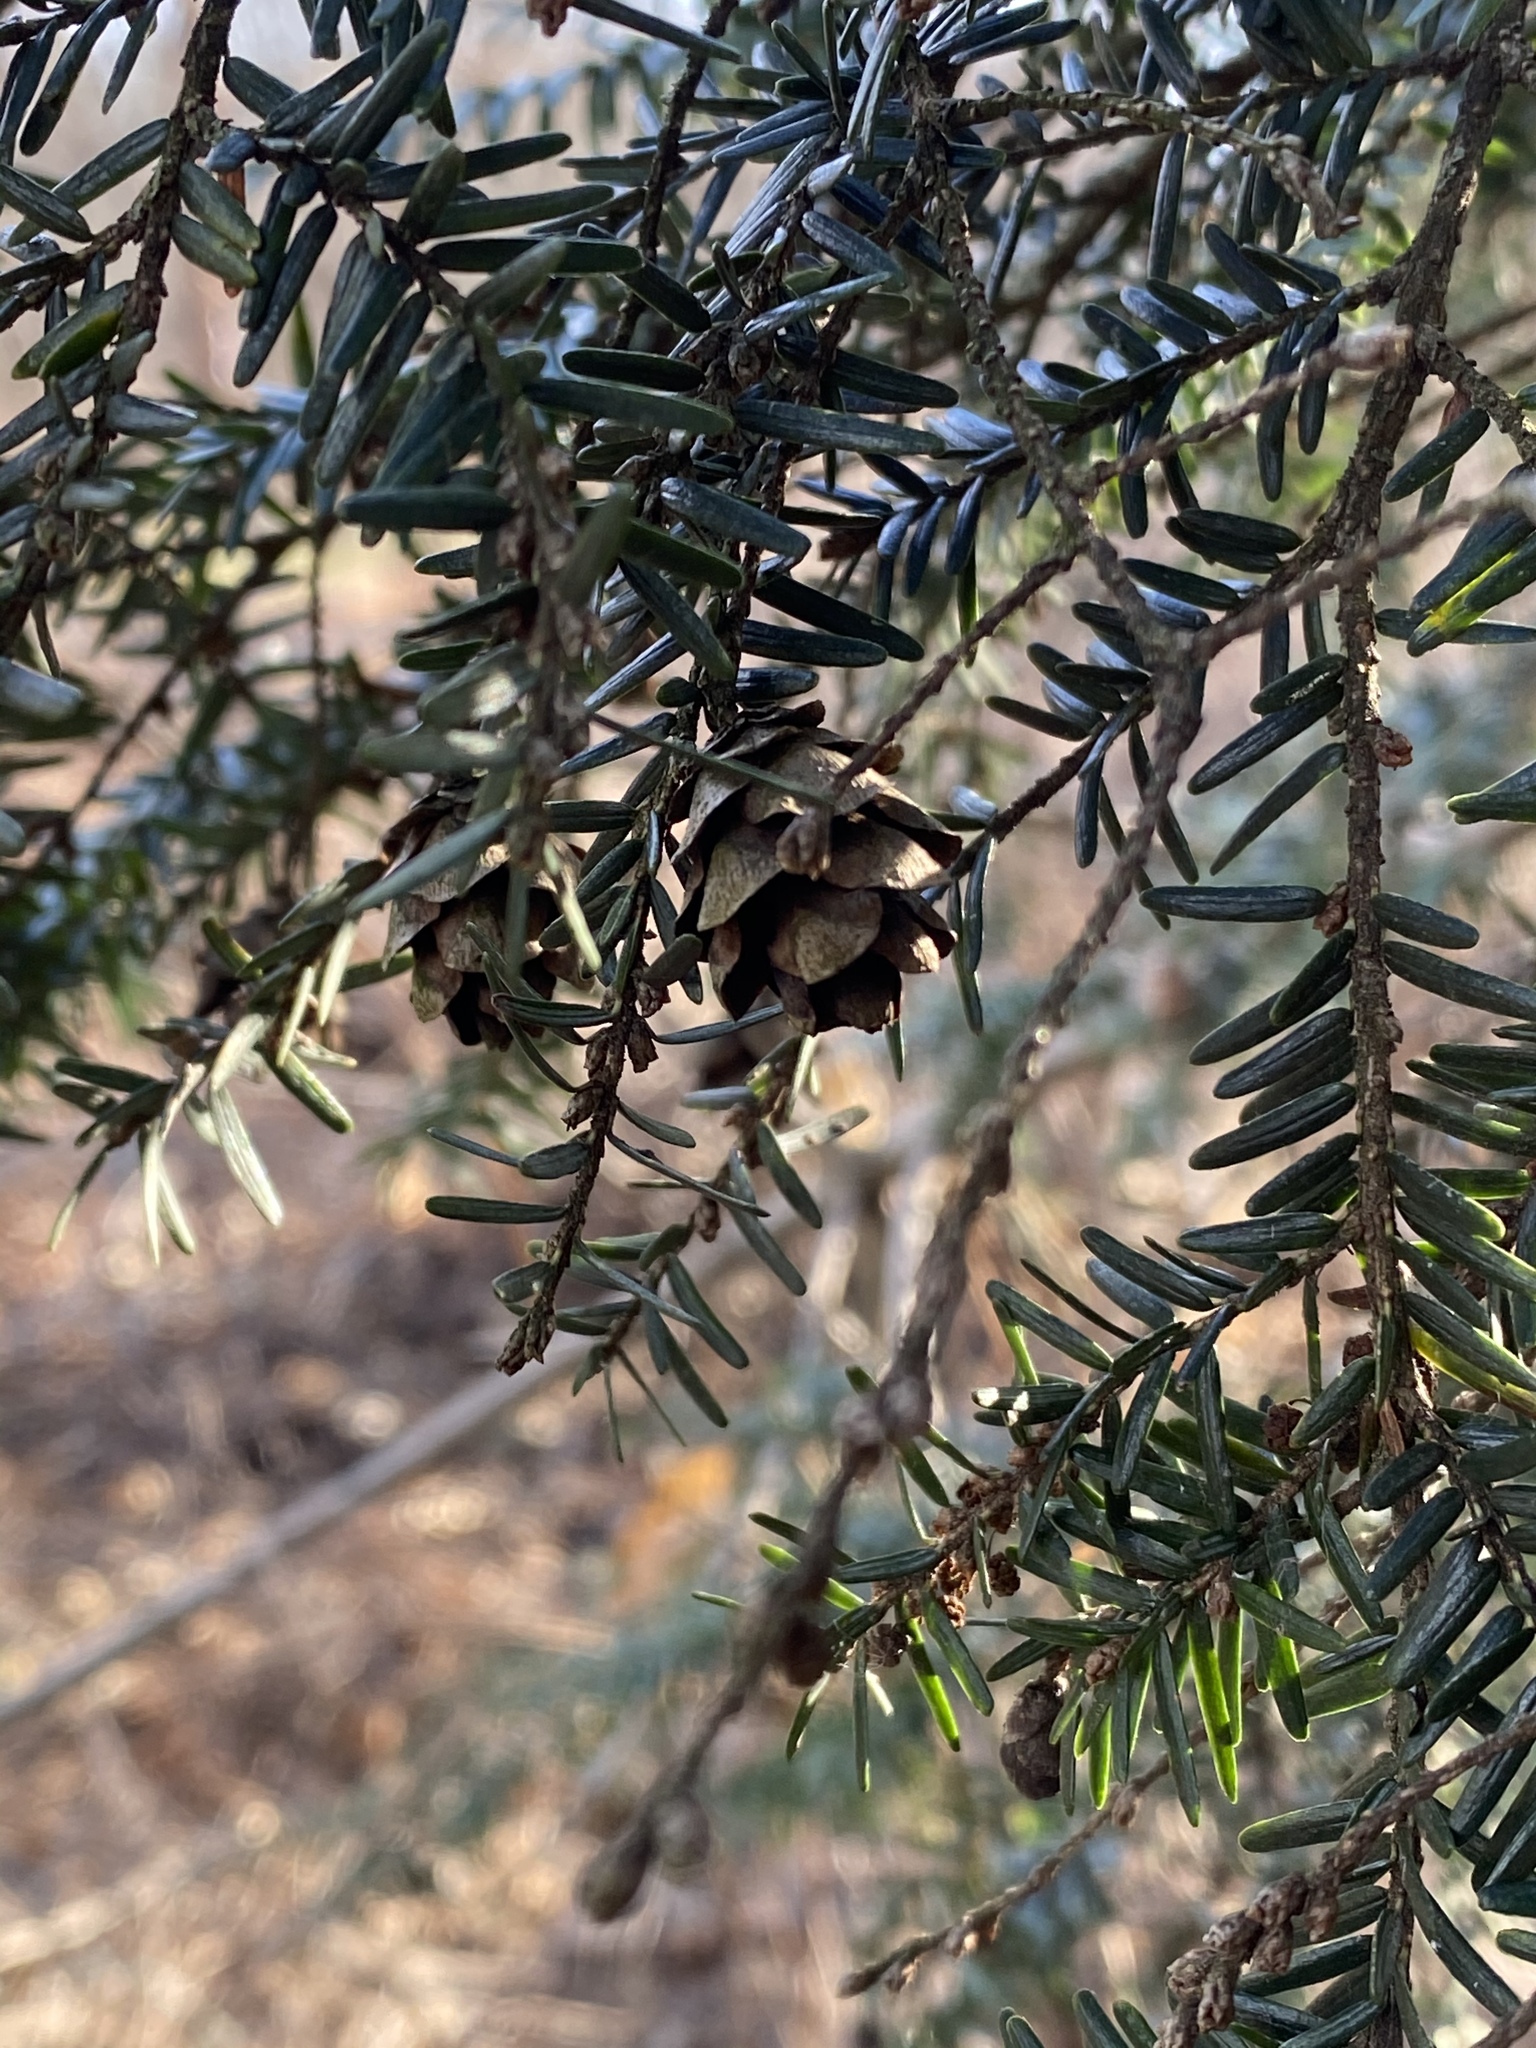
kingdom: Plantae
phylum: Tracheophyta
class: Pinopsida
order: Pinales
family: Pinaceae
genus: Tsuga
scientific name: Tsuga canadensis
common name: Eastern hemlock
